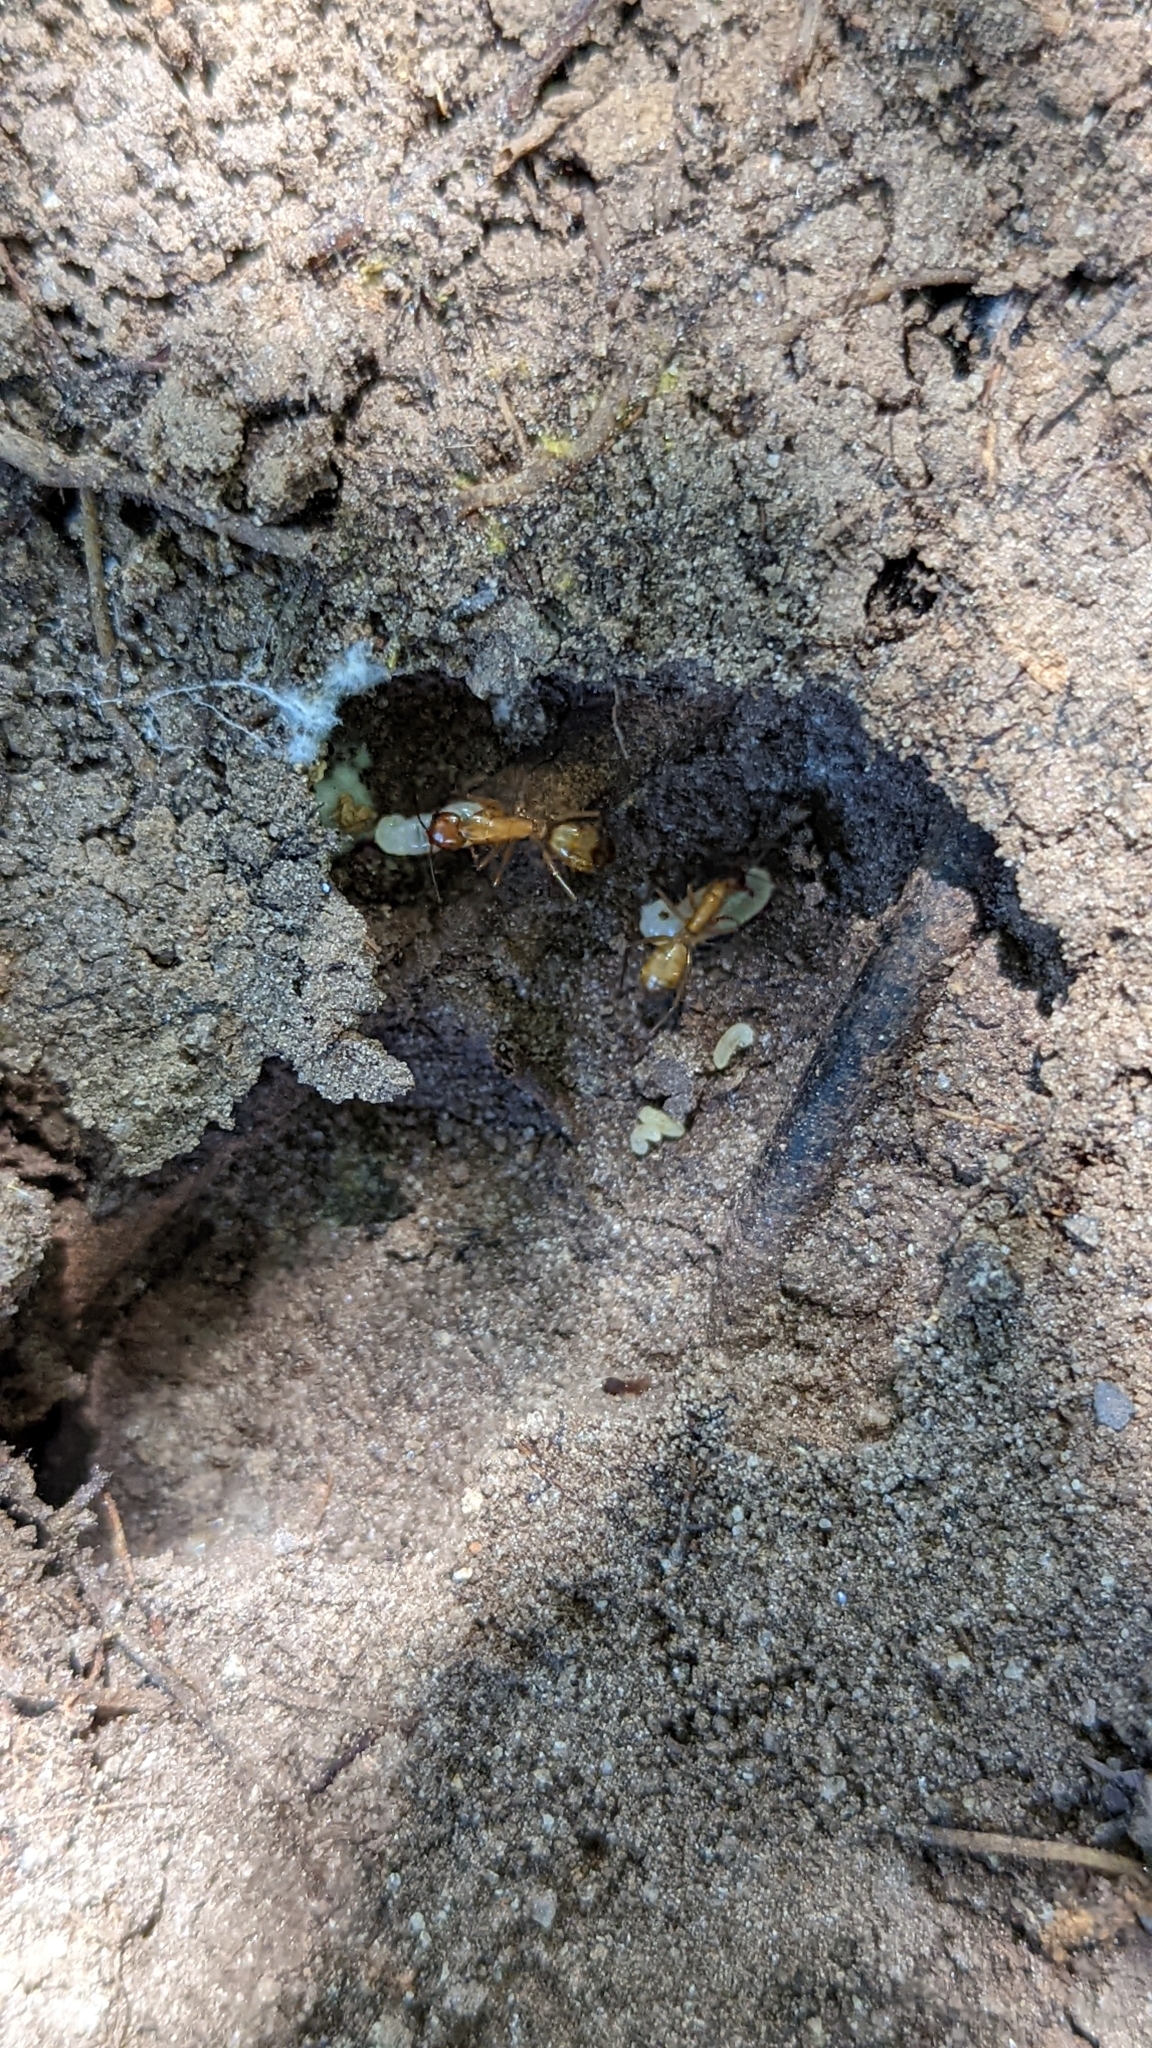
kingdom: Animalia
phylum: Arthropoda
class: Insecta
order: Hymenoptera
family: Formicidae
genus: Camponotus
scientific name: Camponotus castaneus
